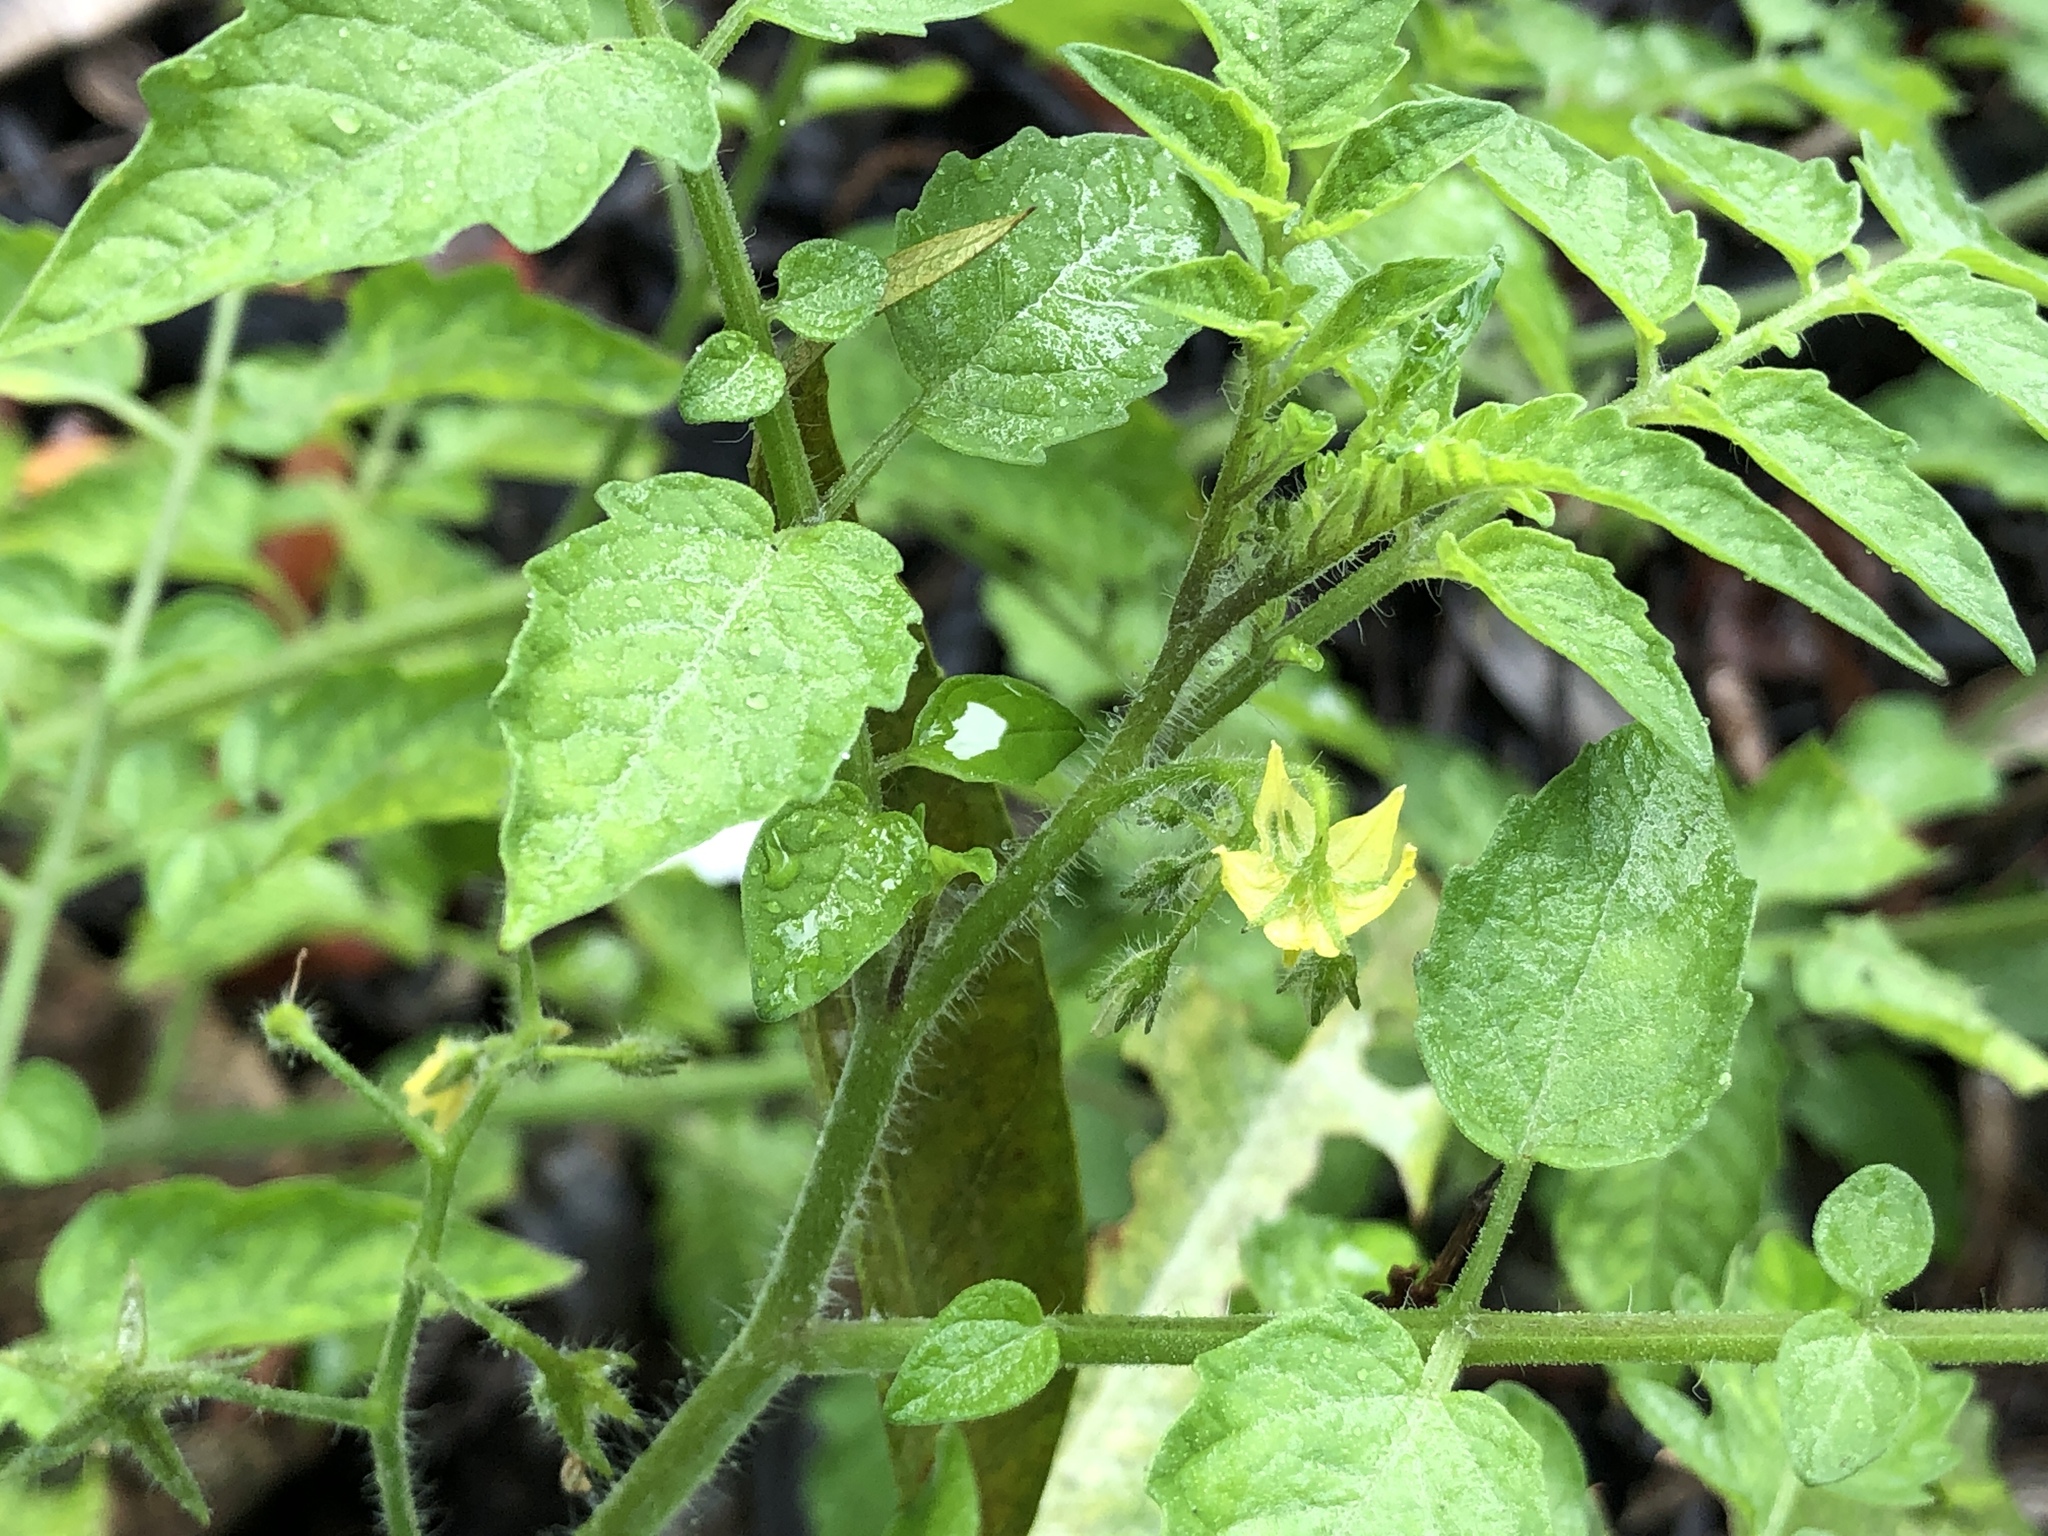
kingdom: Plantae
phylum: Tracheophyta
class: Magnoliopsida
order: Solanales
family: Solanaceae
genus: Solanum
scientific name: Solanum lycopersicum
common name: Garden tomato
